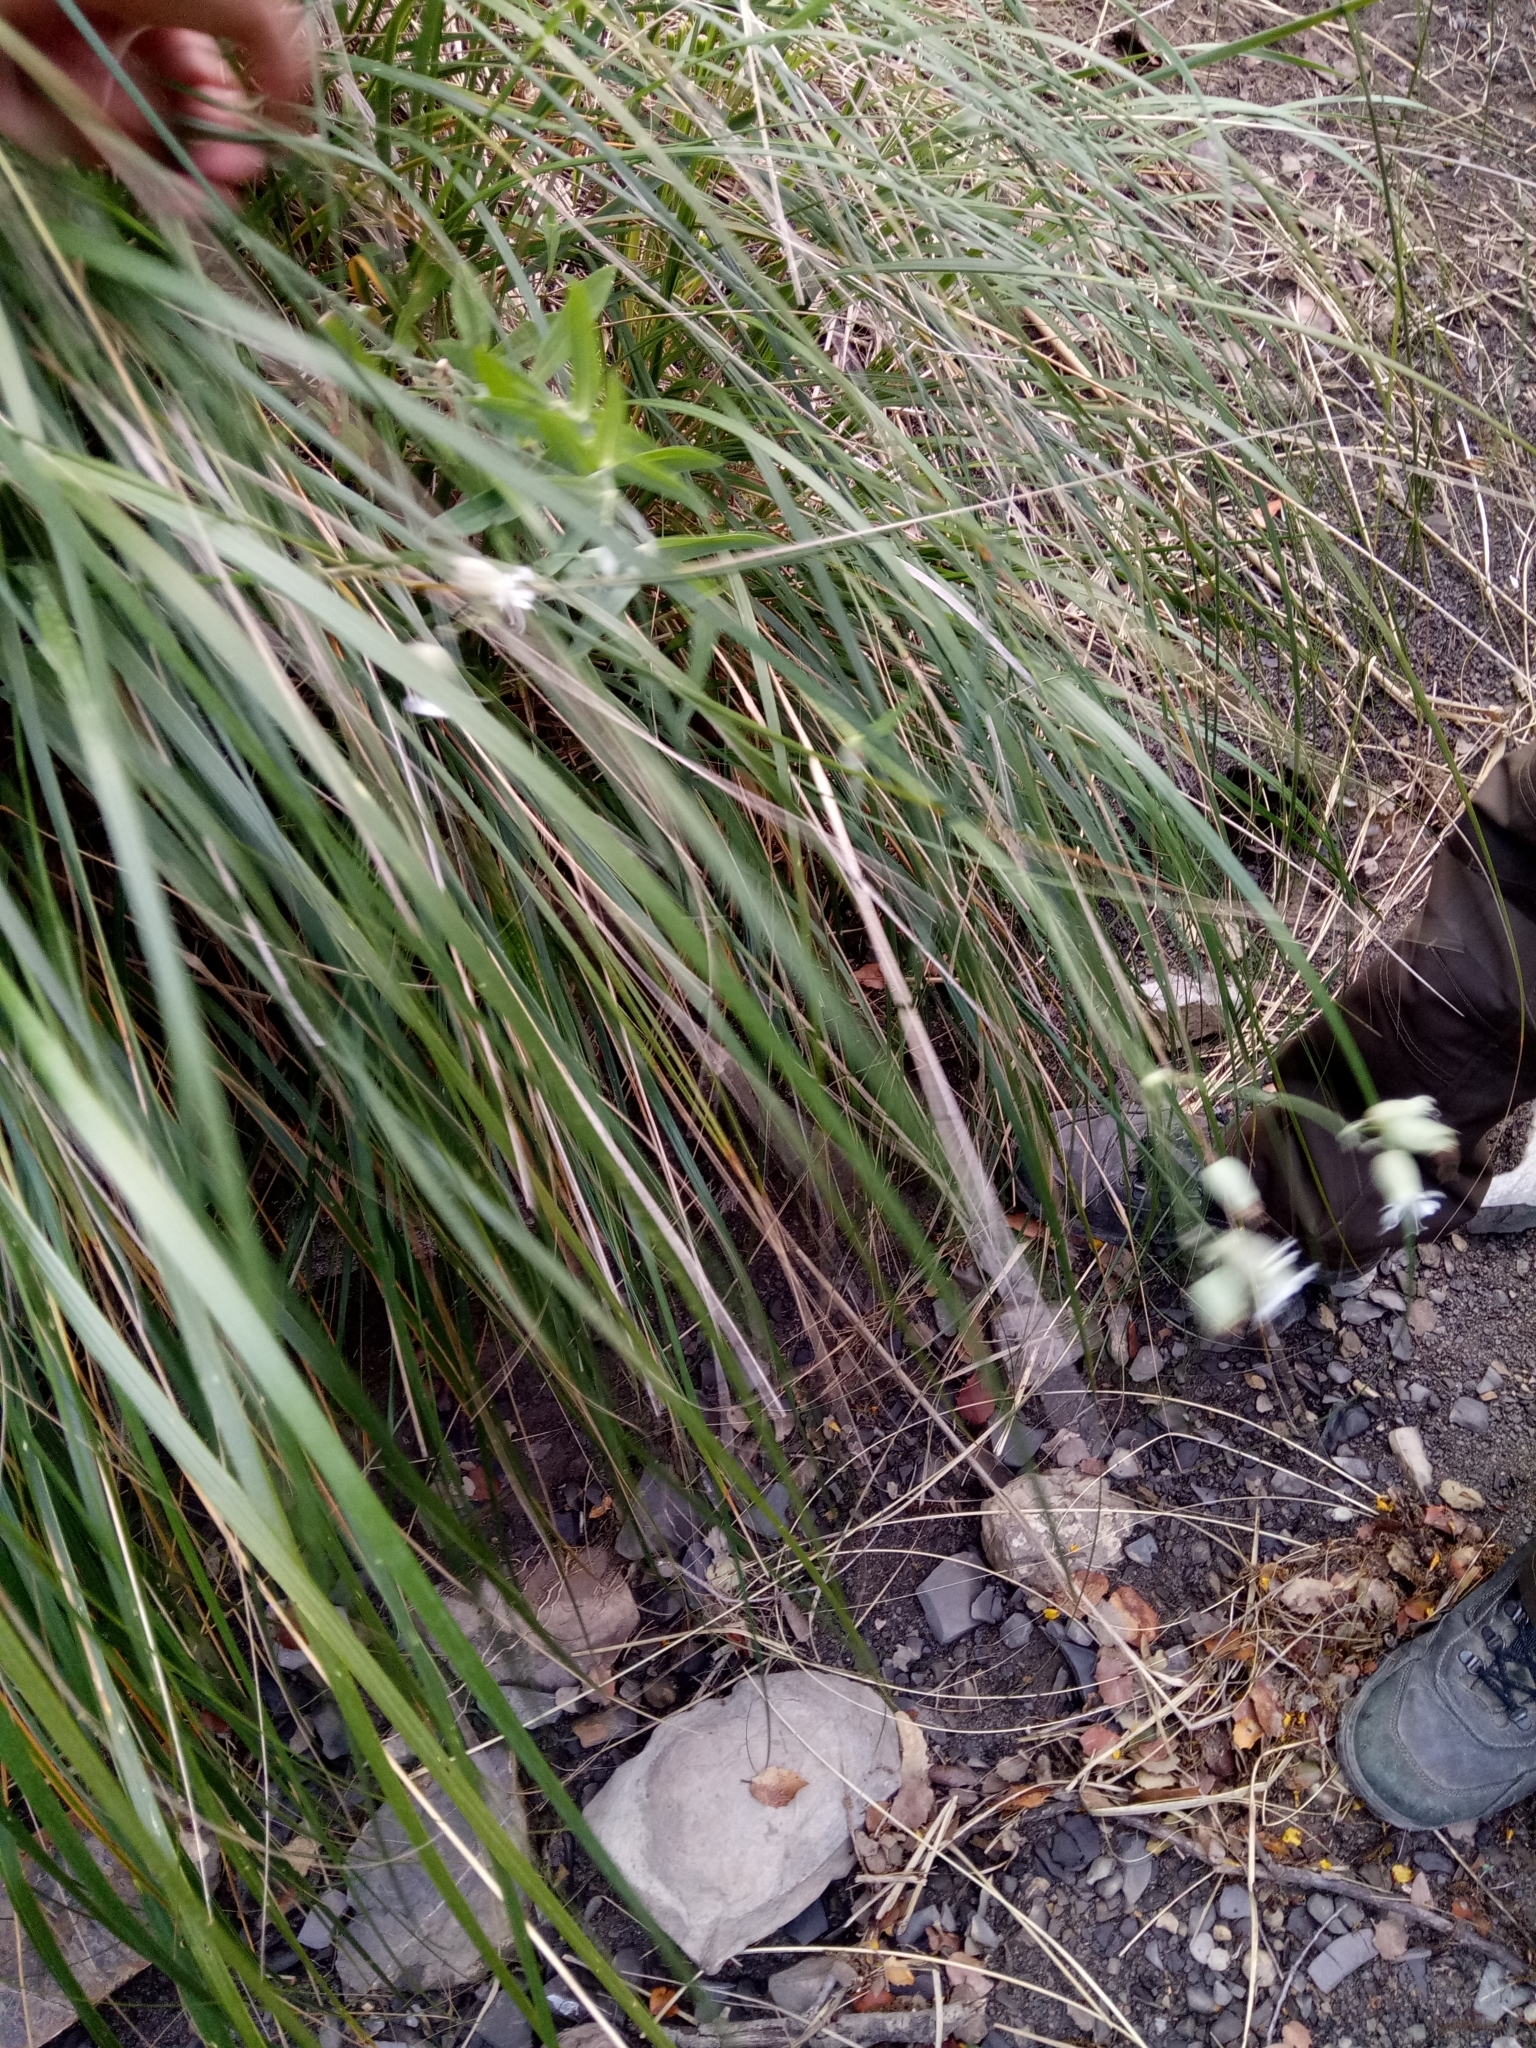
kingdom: Plantae
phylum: Tracheophyta
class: Magnoliopsida
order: Caryophyllales
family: Caryophyllaceae
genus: Silene
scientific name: Silene vulgaris
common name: Bladder campion
